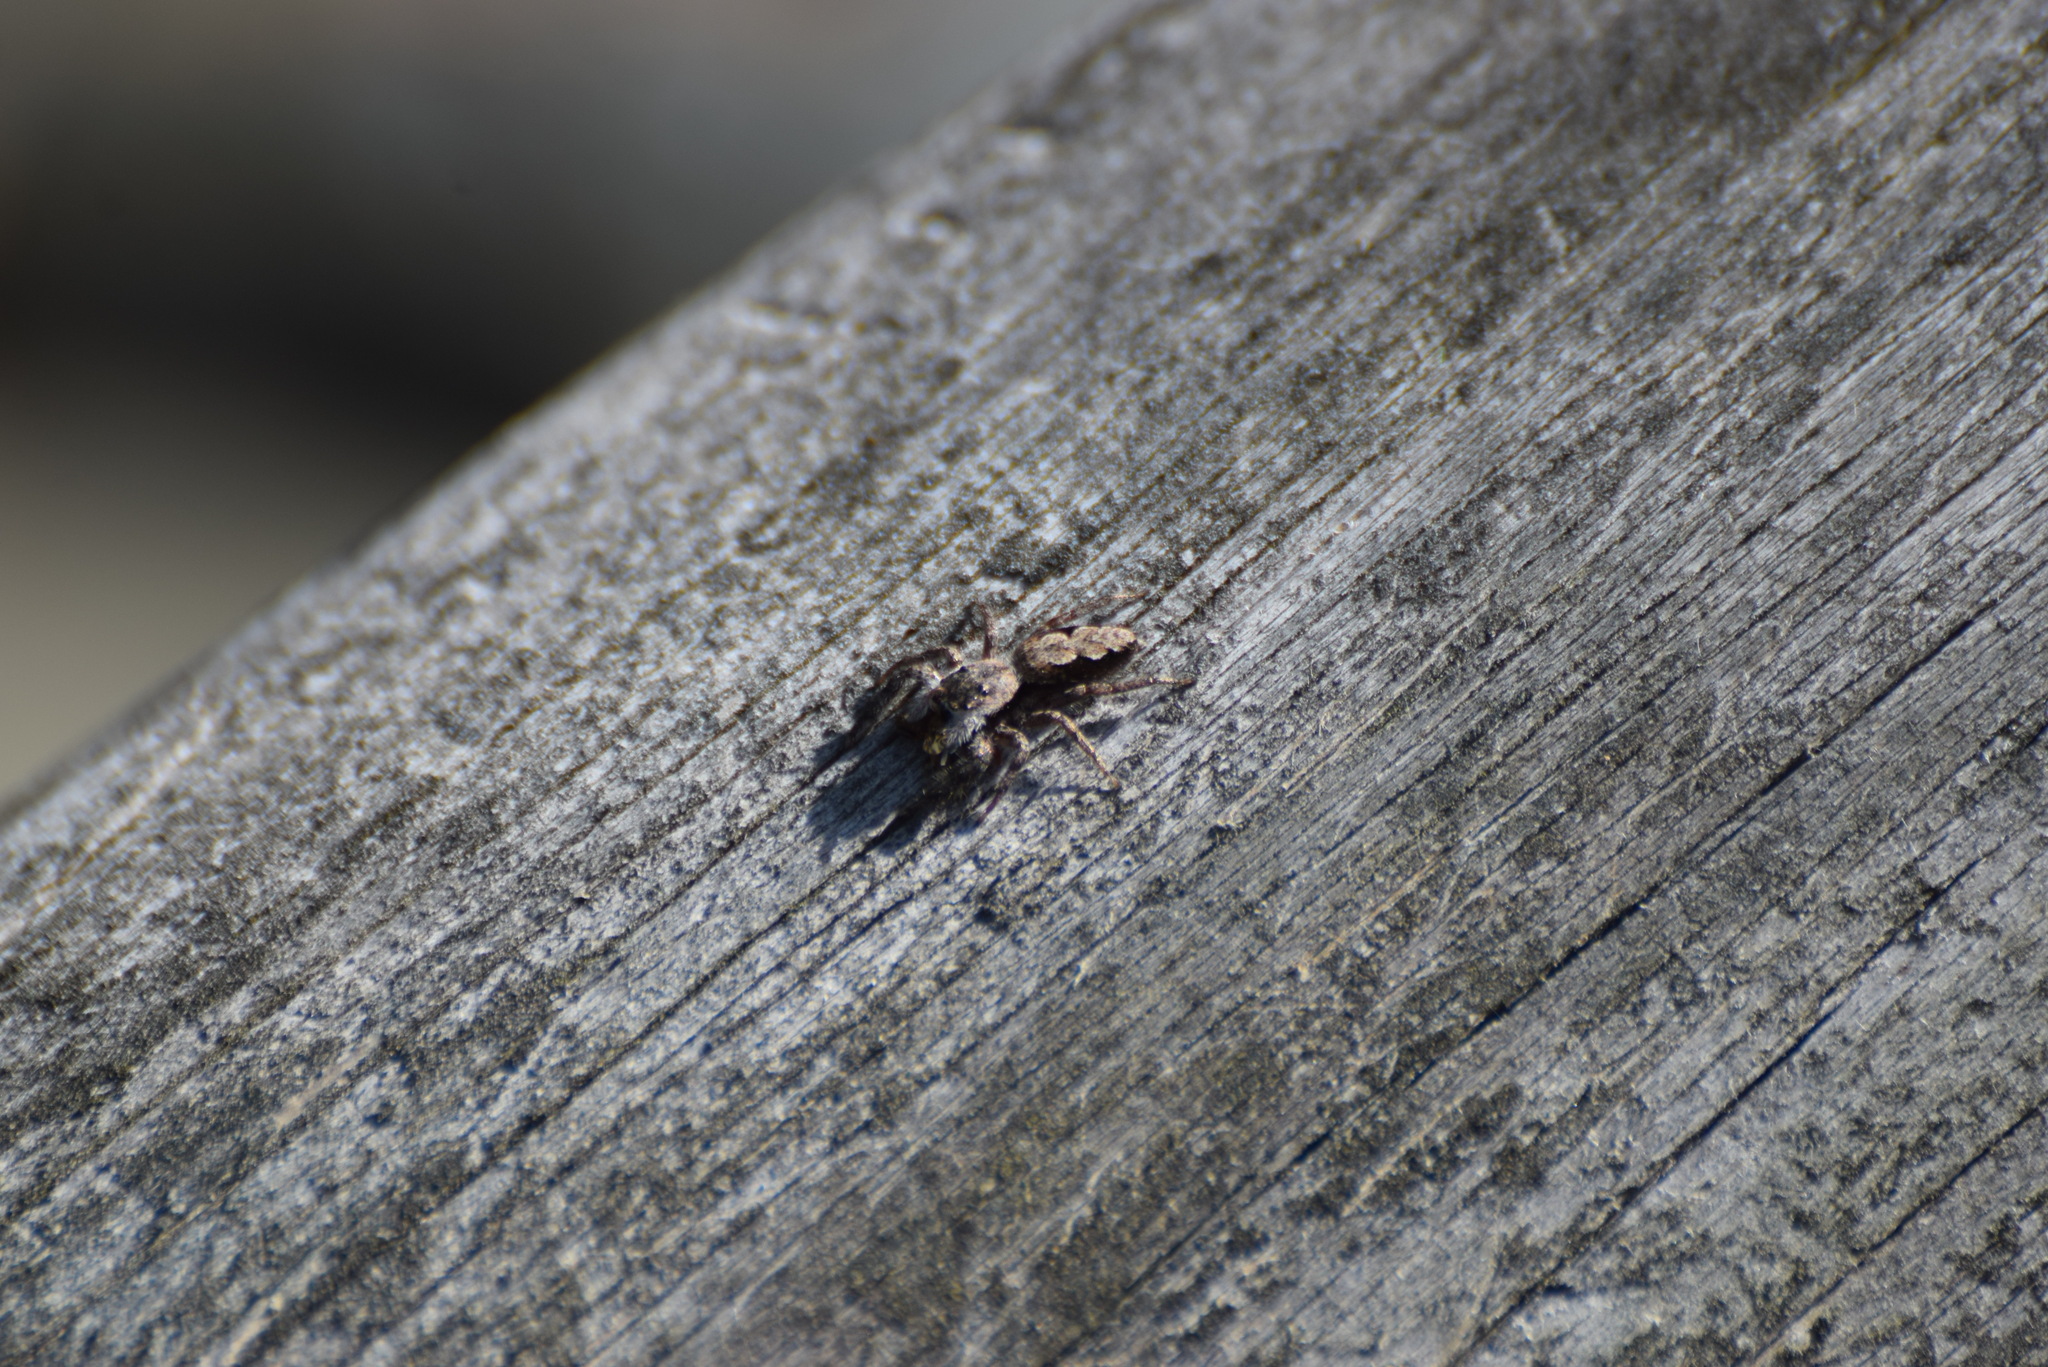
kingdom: Animalia
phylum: Arthropoda
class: Arachnida
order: Araneae
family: Salticidae
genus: Platycryptus
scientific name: Platycryptus undatus
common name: Tan jumping spider
